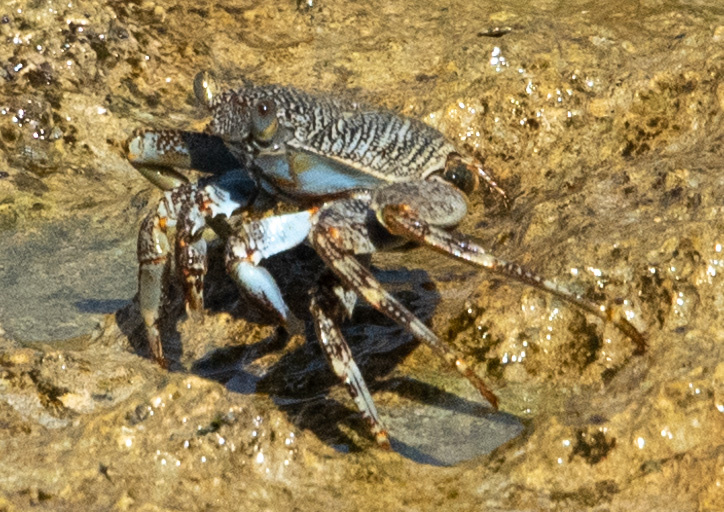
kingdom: Animalia
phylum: Arthropoda
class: Malacostraca
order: Decapoda
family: Grapsidae
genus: Grapsus
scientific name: Grapsus grapsus
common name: Sally lightfoot
